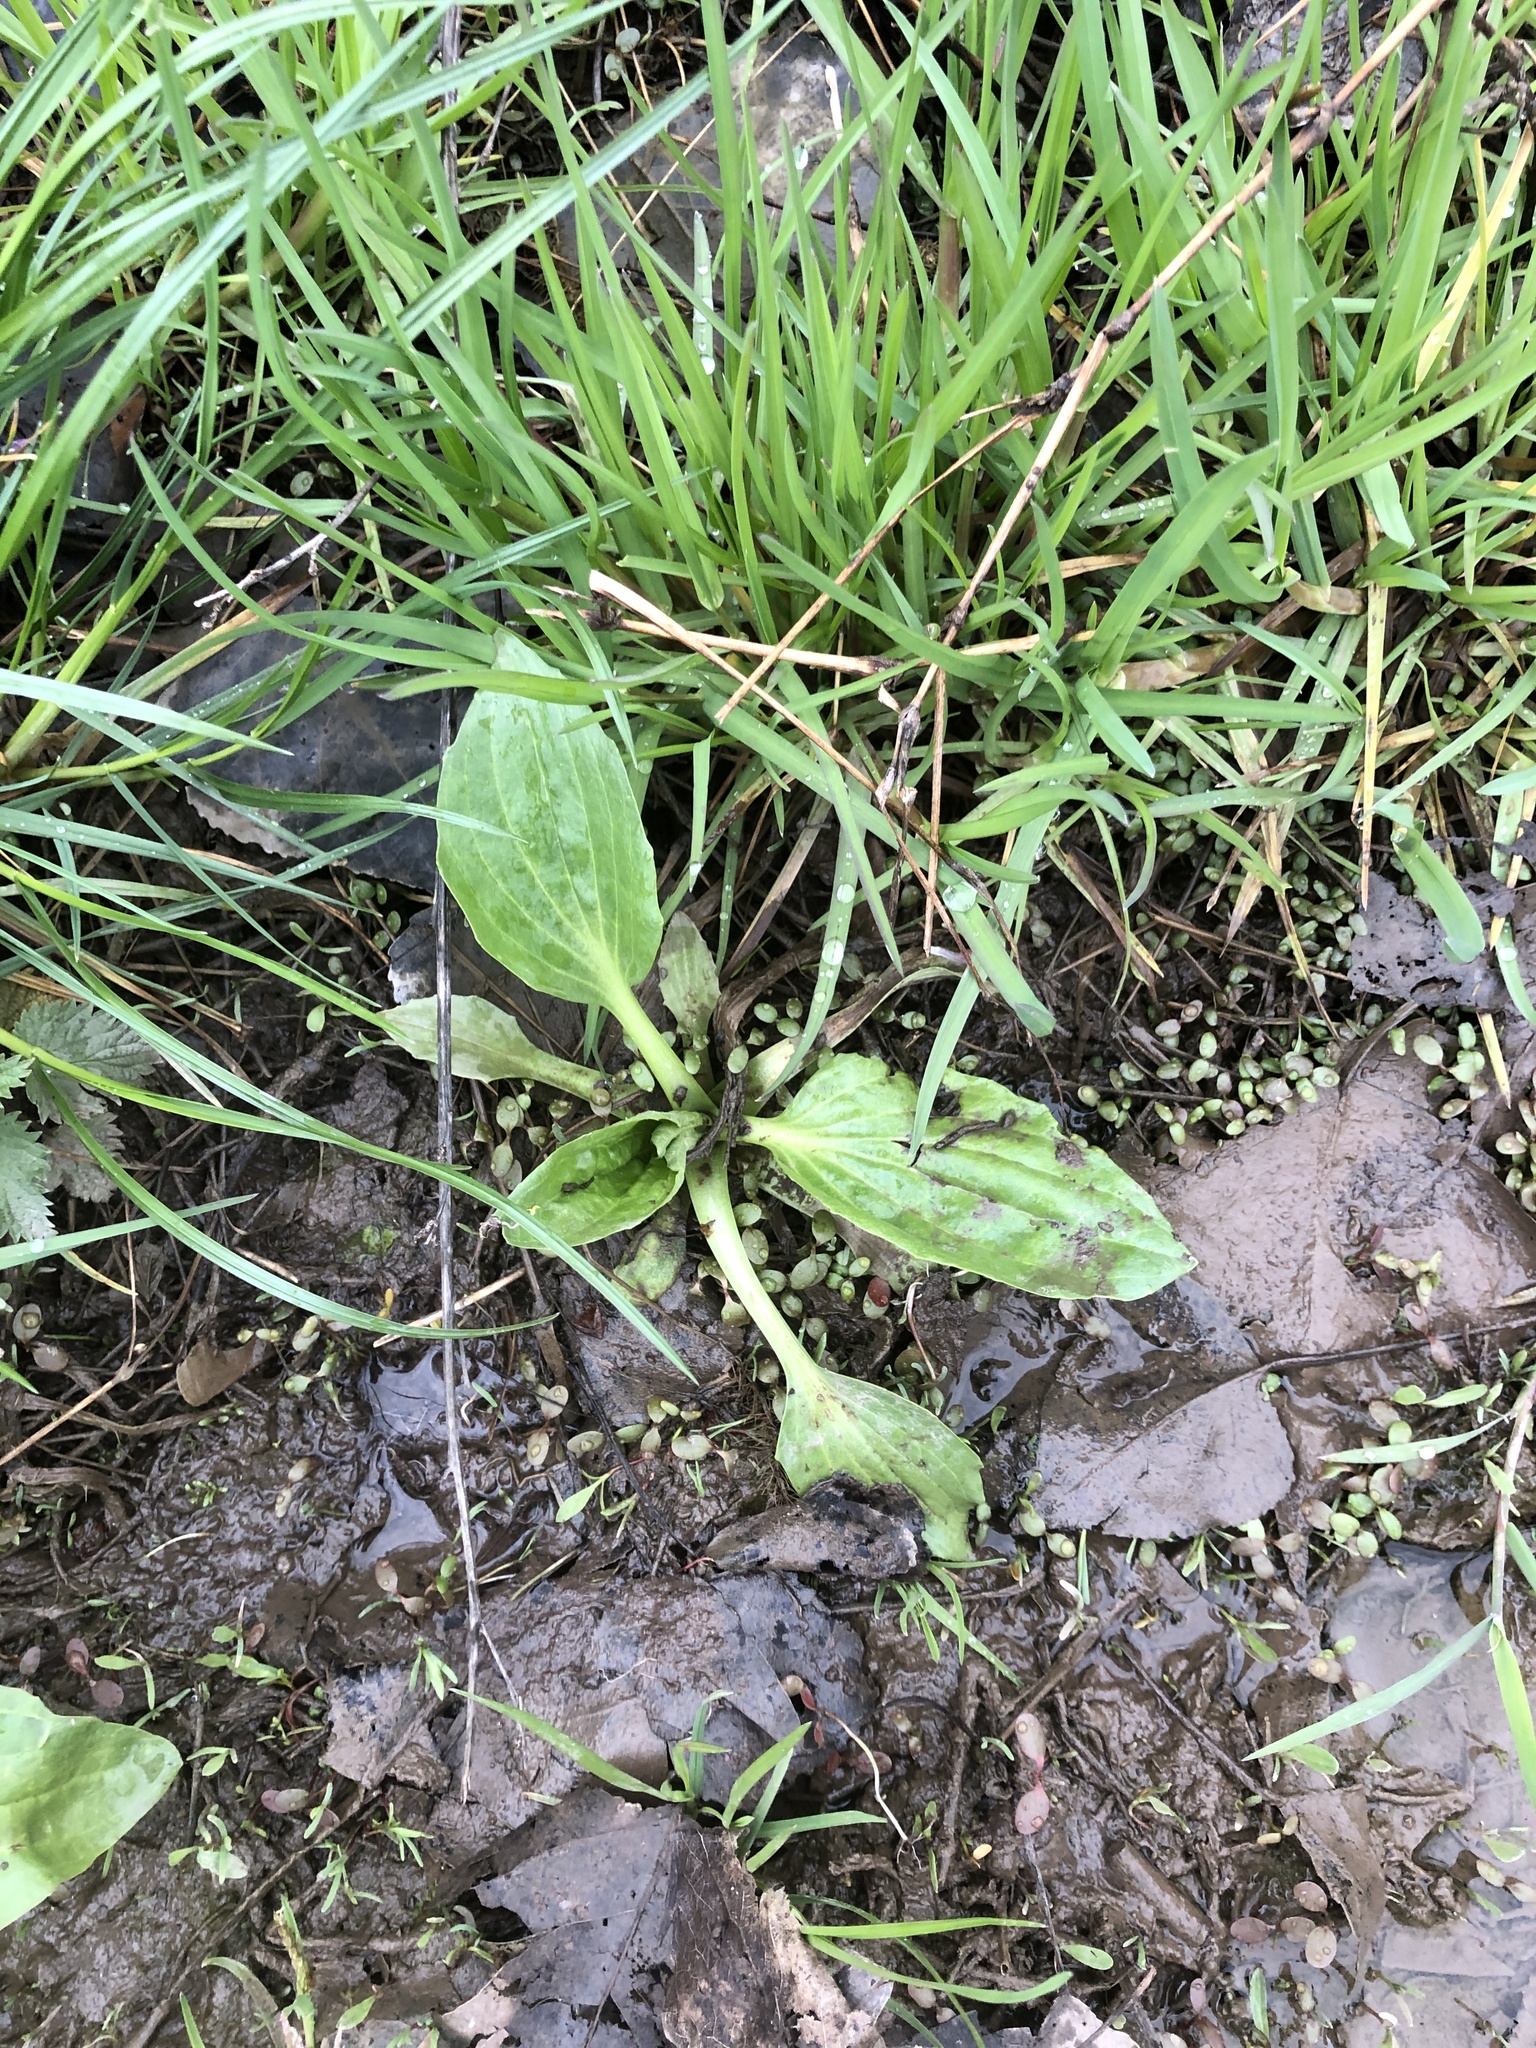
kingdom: Plantae
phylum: Tracheophyta
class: Magnoliopsida
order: Lamiales
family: Plantaginaceae
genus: Plantago
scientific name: Plantago major
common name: Common plantain
